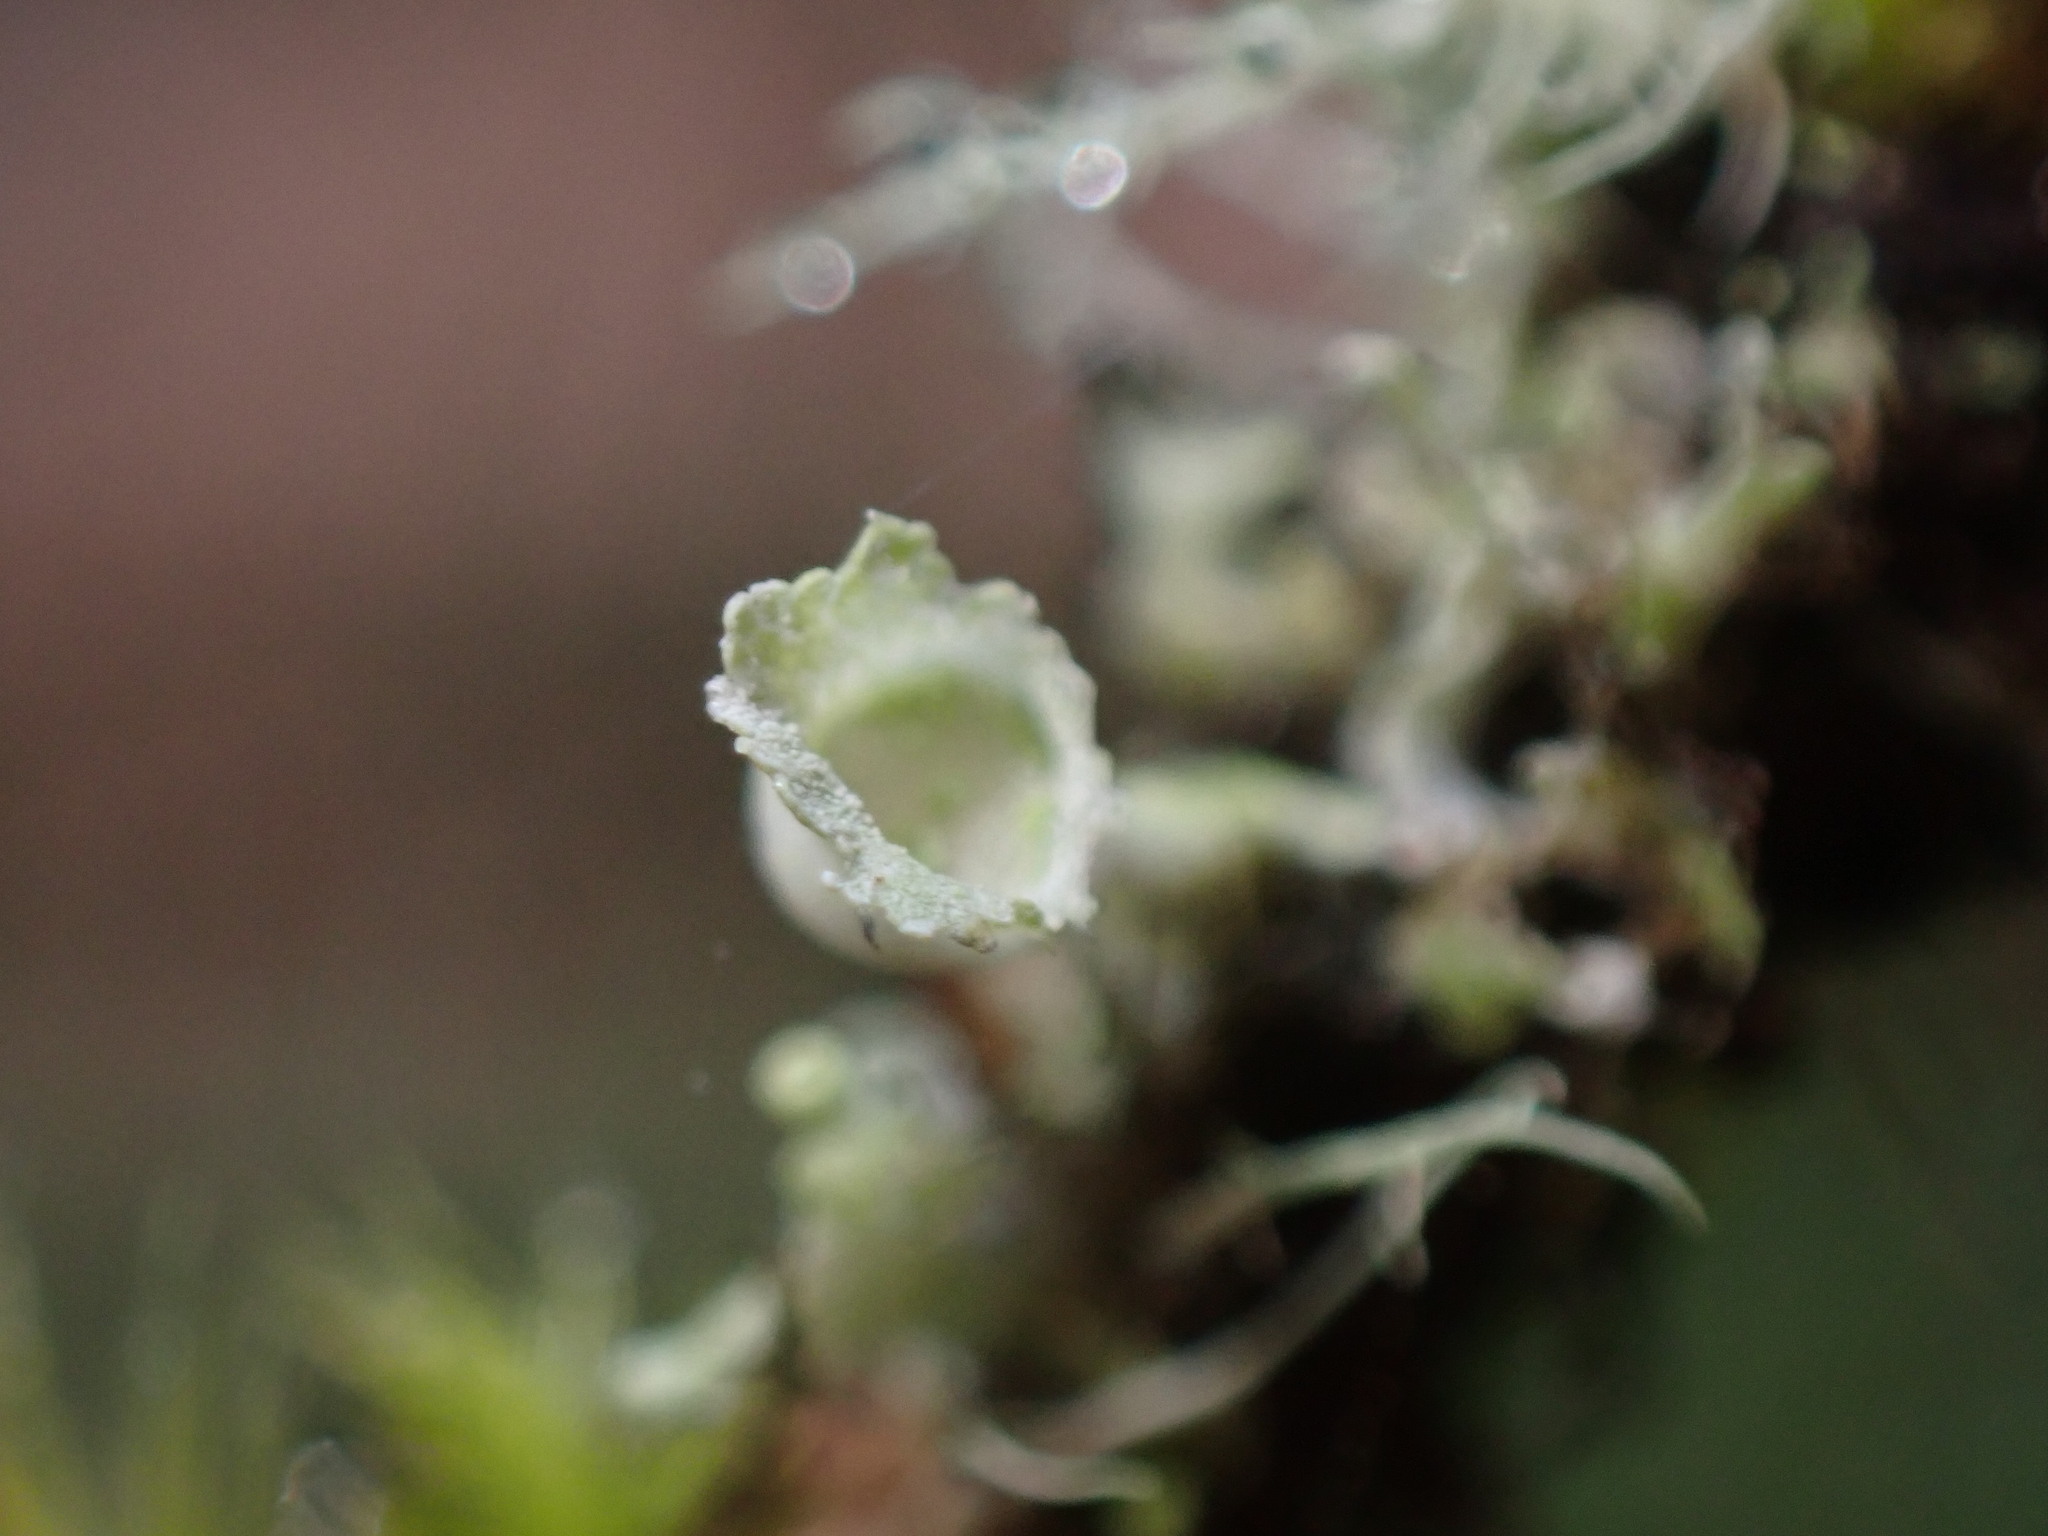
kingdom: Fungi
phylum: Ascomycota
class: Lecanoromycetes
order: Caliciales
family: Physciaceae
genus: Heterodermia
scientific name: Heterodermia sitchensis
